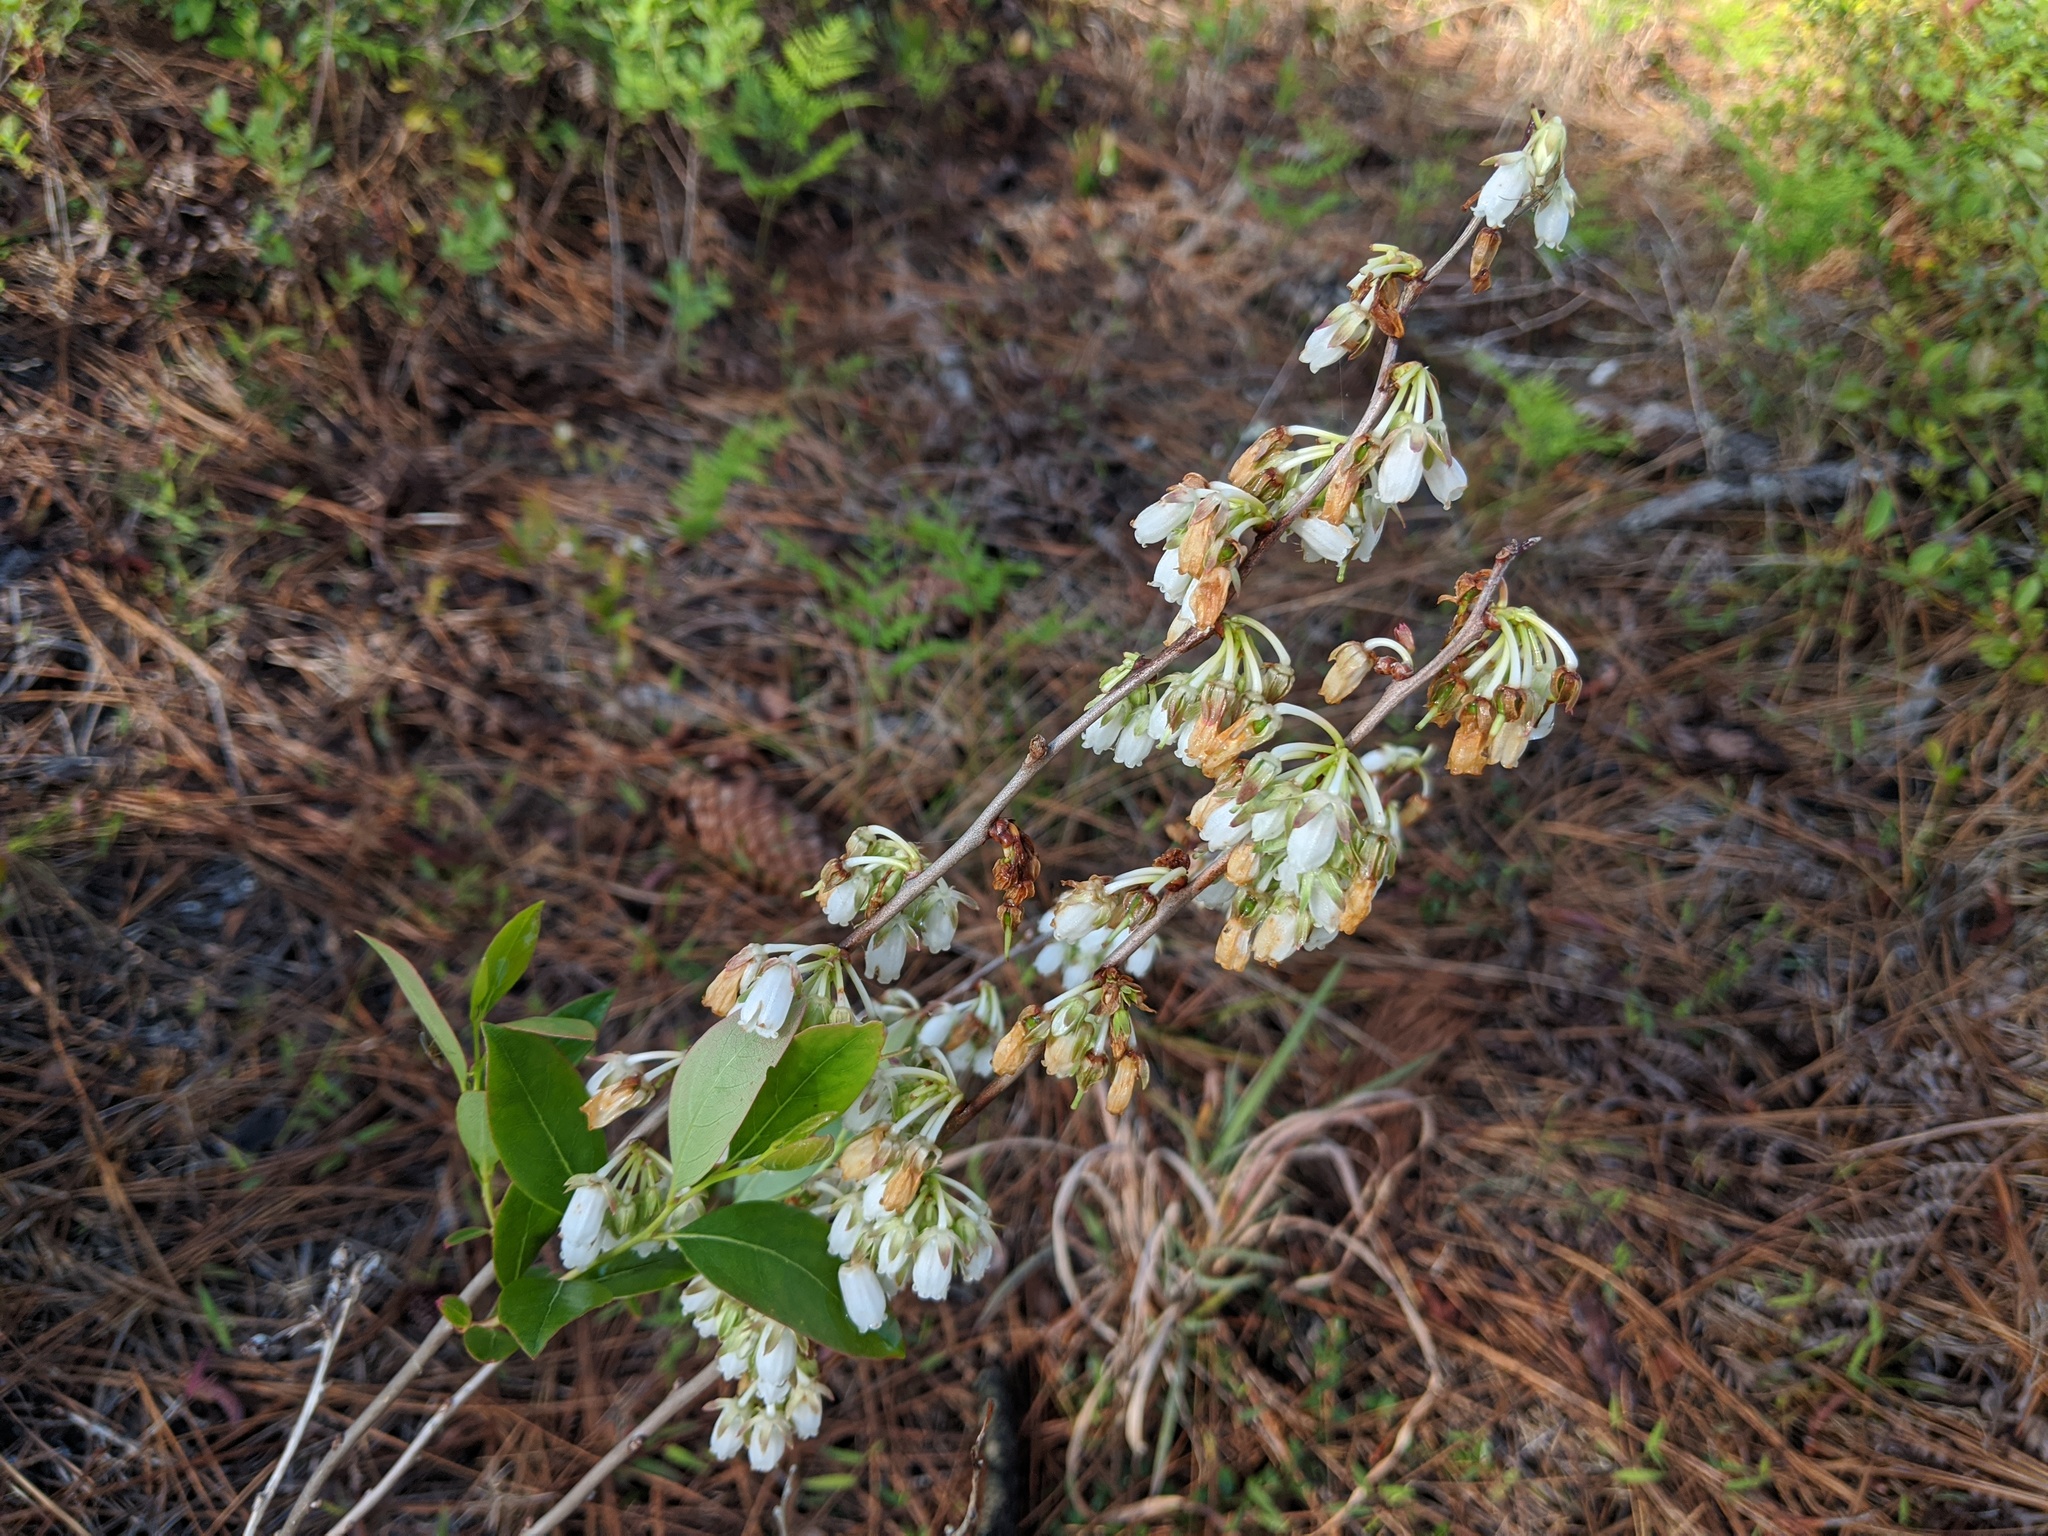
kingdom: Plantae
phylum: Tracheophyta
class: Magnoliopsida
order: Ericales
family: Ericaceae
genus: Lyonia
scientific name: Lyonia mariana
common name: Staggerbush
